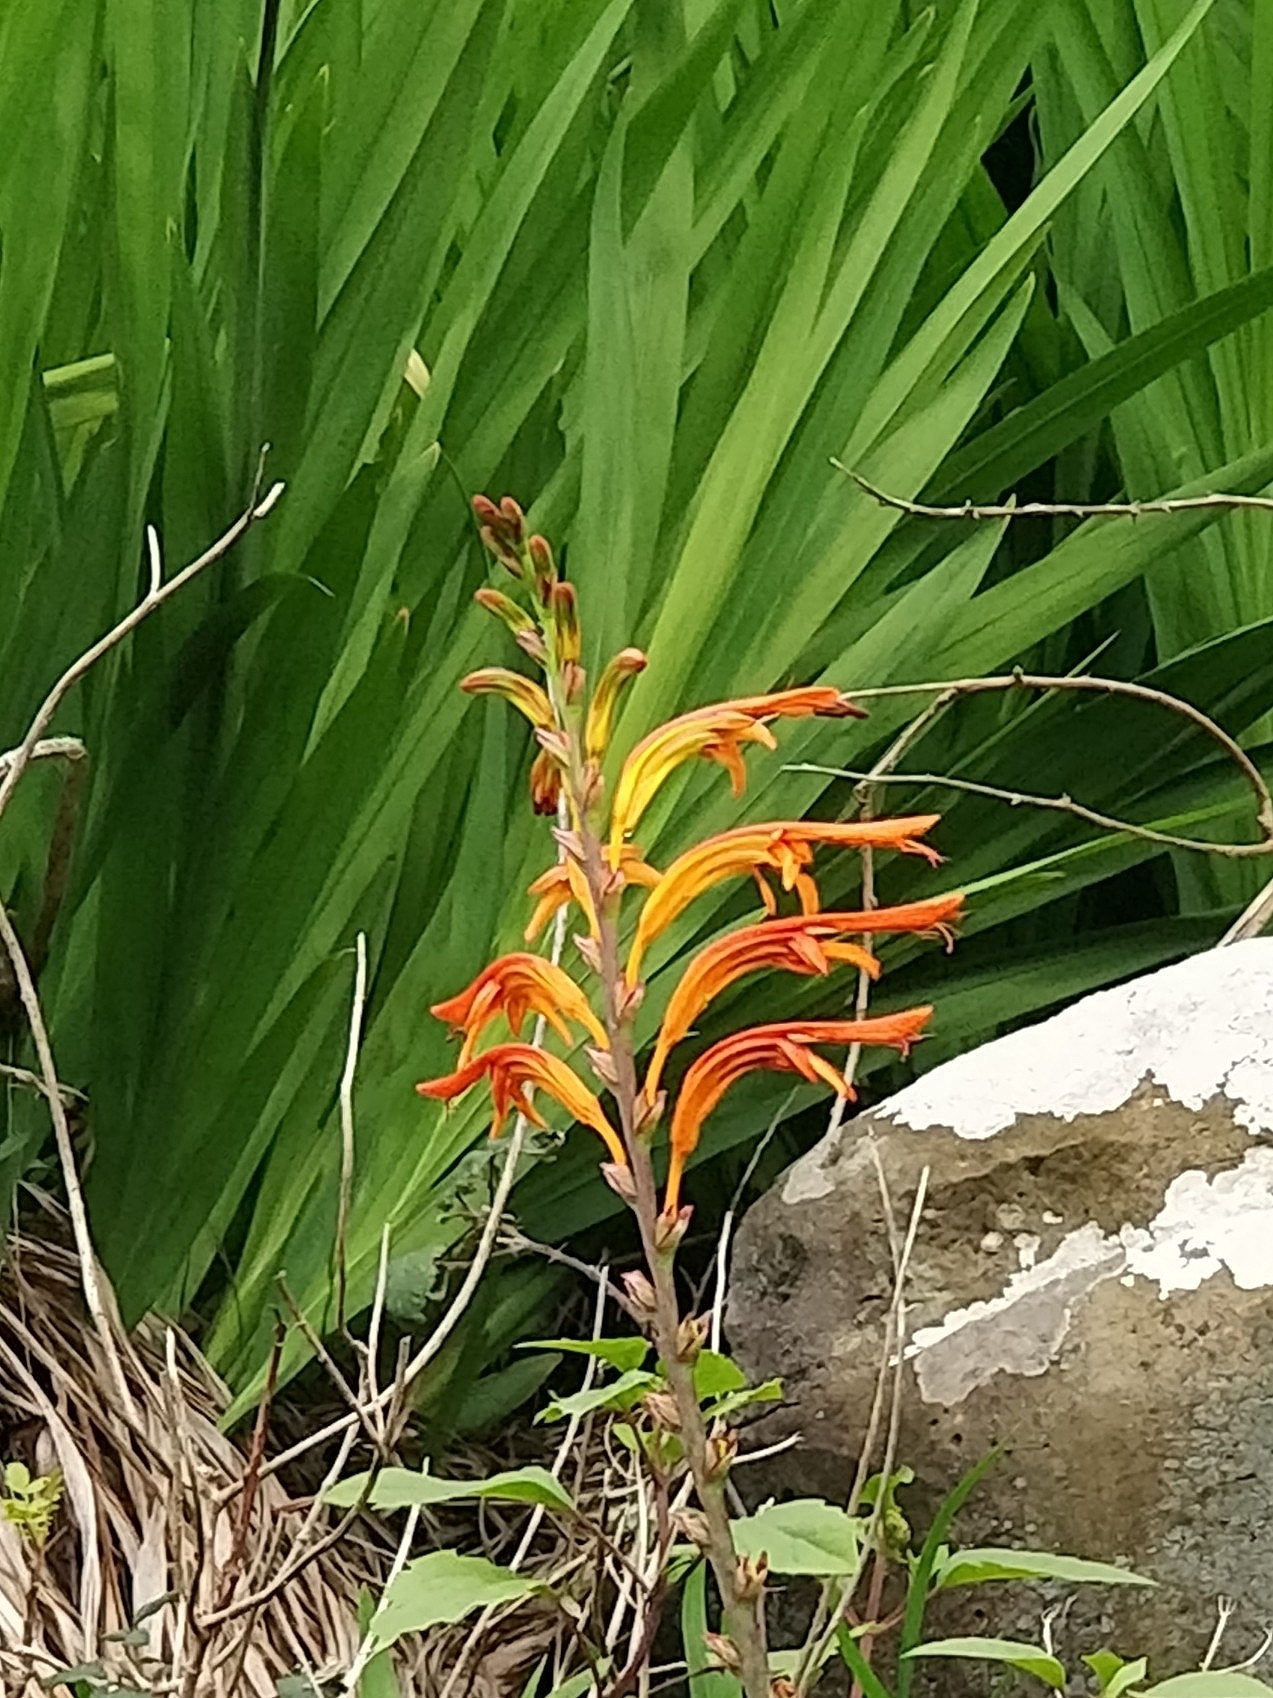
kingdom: Plantae
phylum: Tracheophyta
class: Liliopsida
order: Asparagales
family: Iridaceae
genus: Chasmanthe
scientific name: Chasmanthe floribunda
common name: African cornflag
